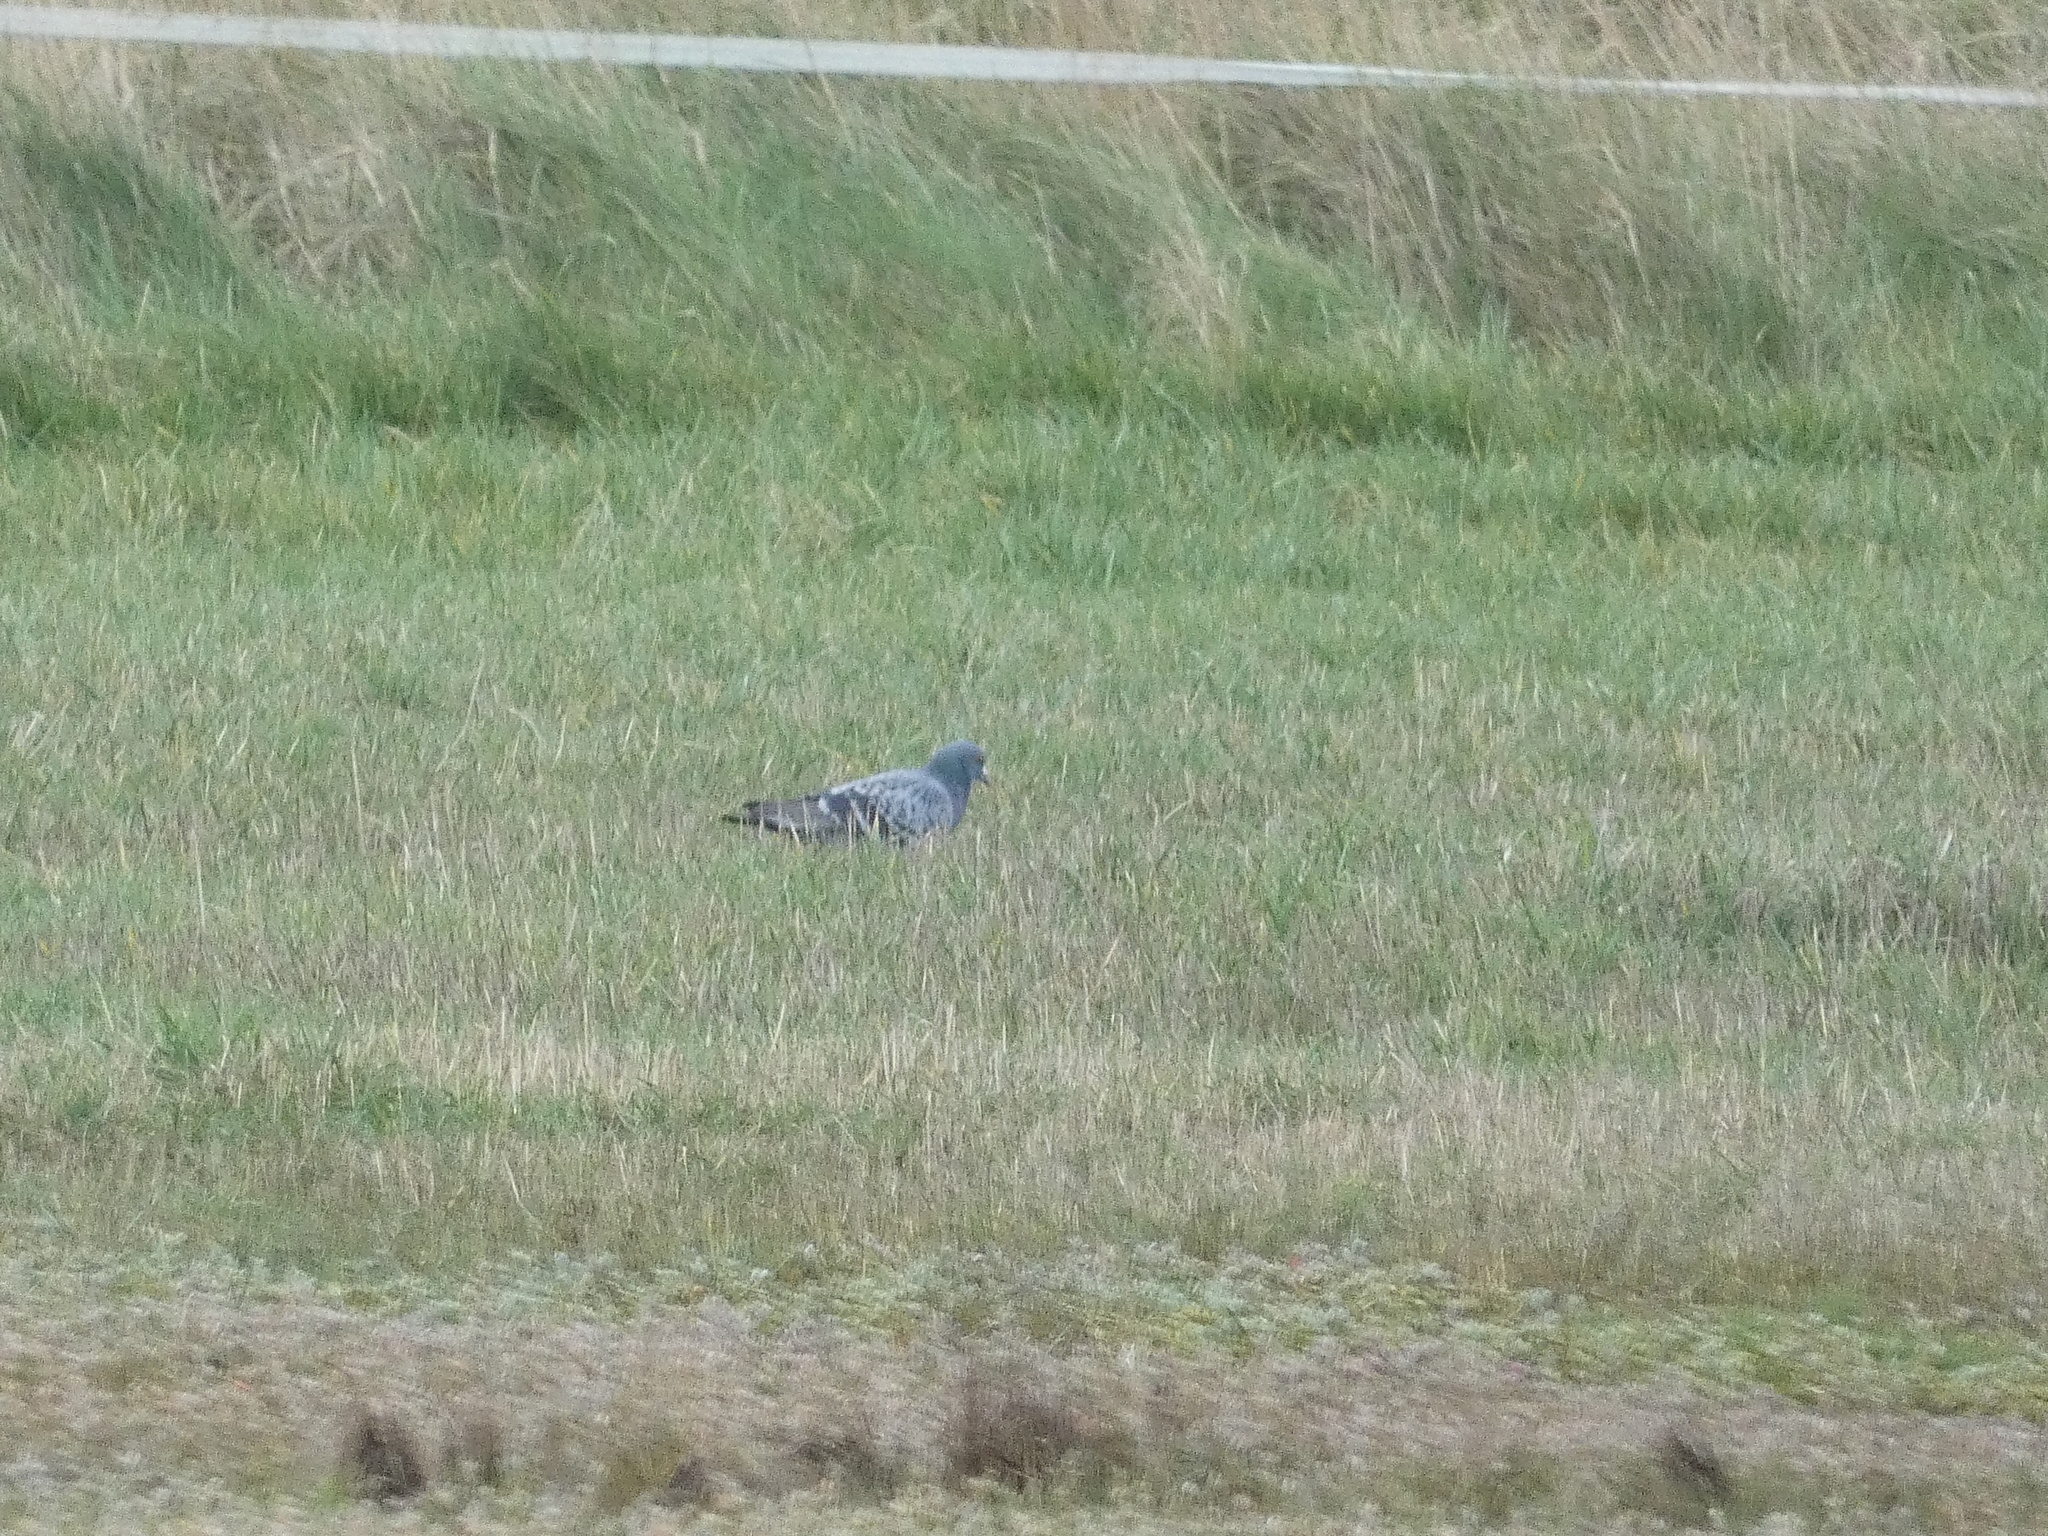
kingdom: Animalia
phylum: Chordata
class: Aves
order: Columbiformes
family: Columbidae
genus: Columba
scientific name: Columba livia
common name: Rock pigeon
